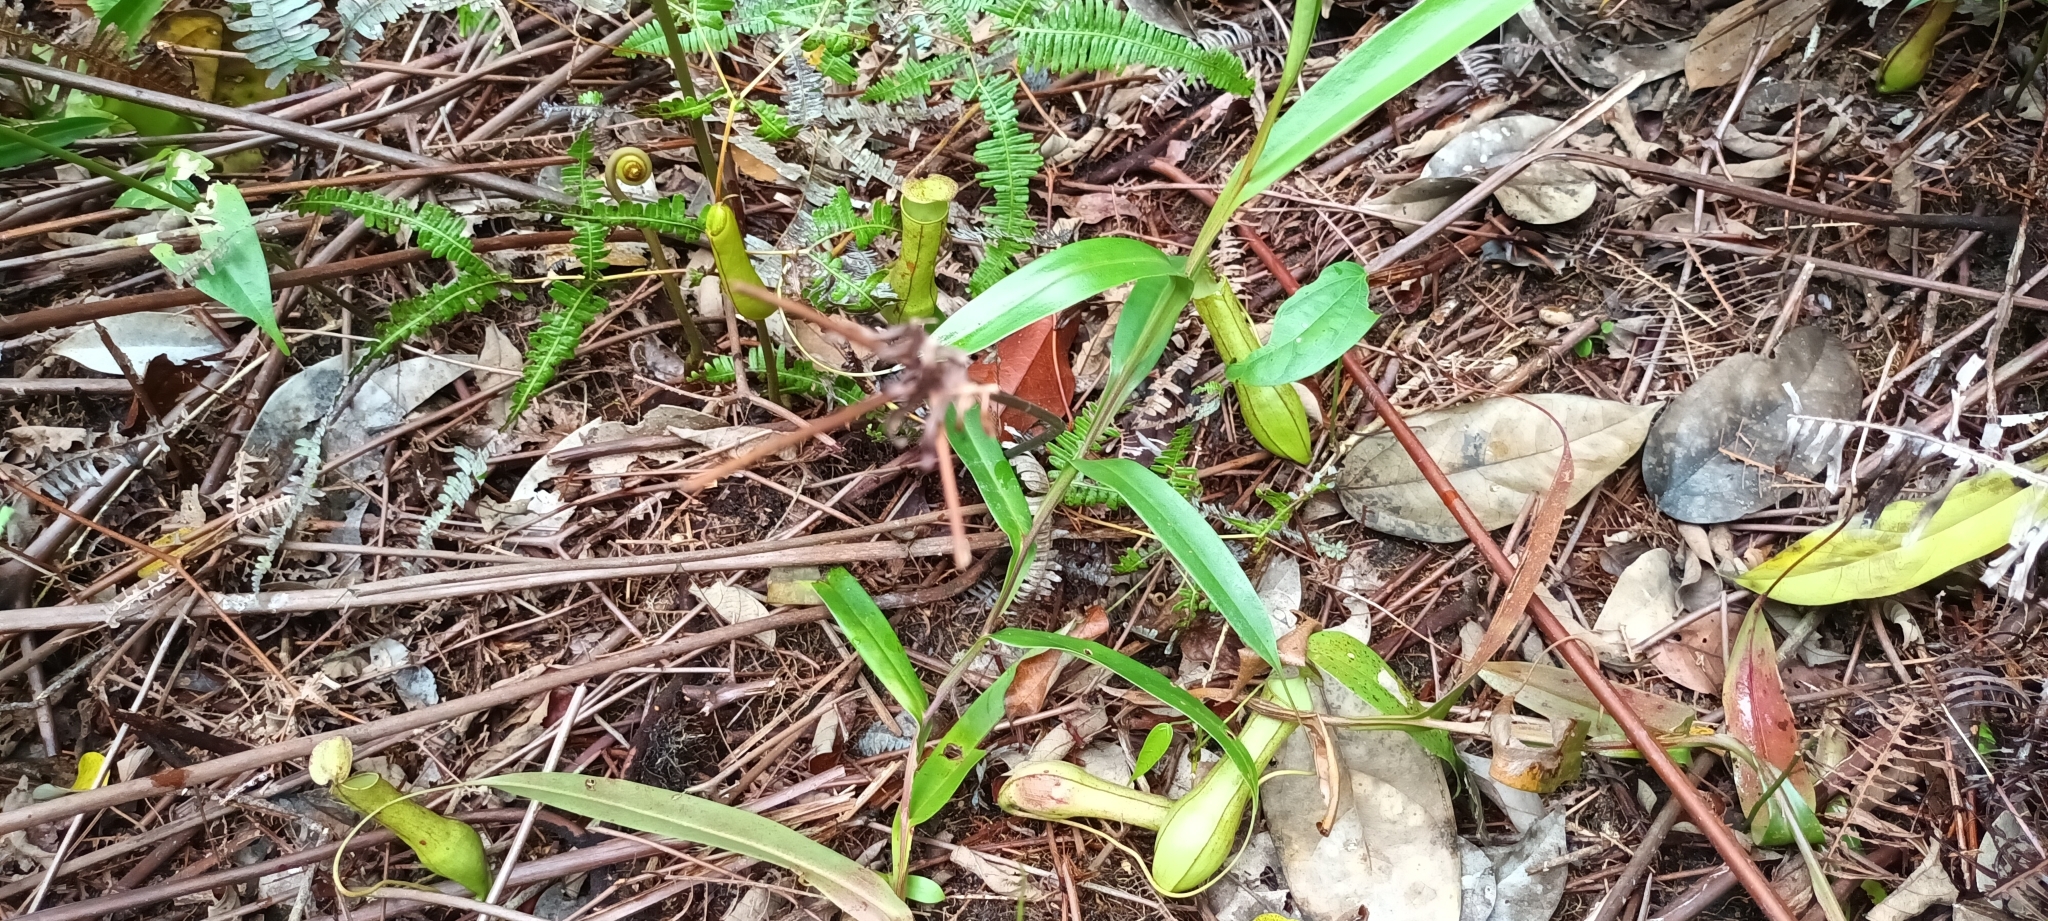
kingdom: Plantae
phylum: Tracheophyta
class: Magnoliopsida
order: Caryophyllales
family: Nepenthaceae
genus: Nepenthes
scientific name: Nepenthes gracilis
